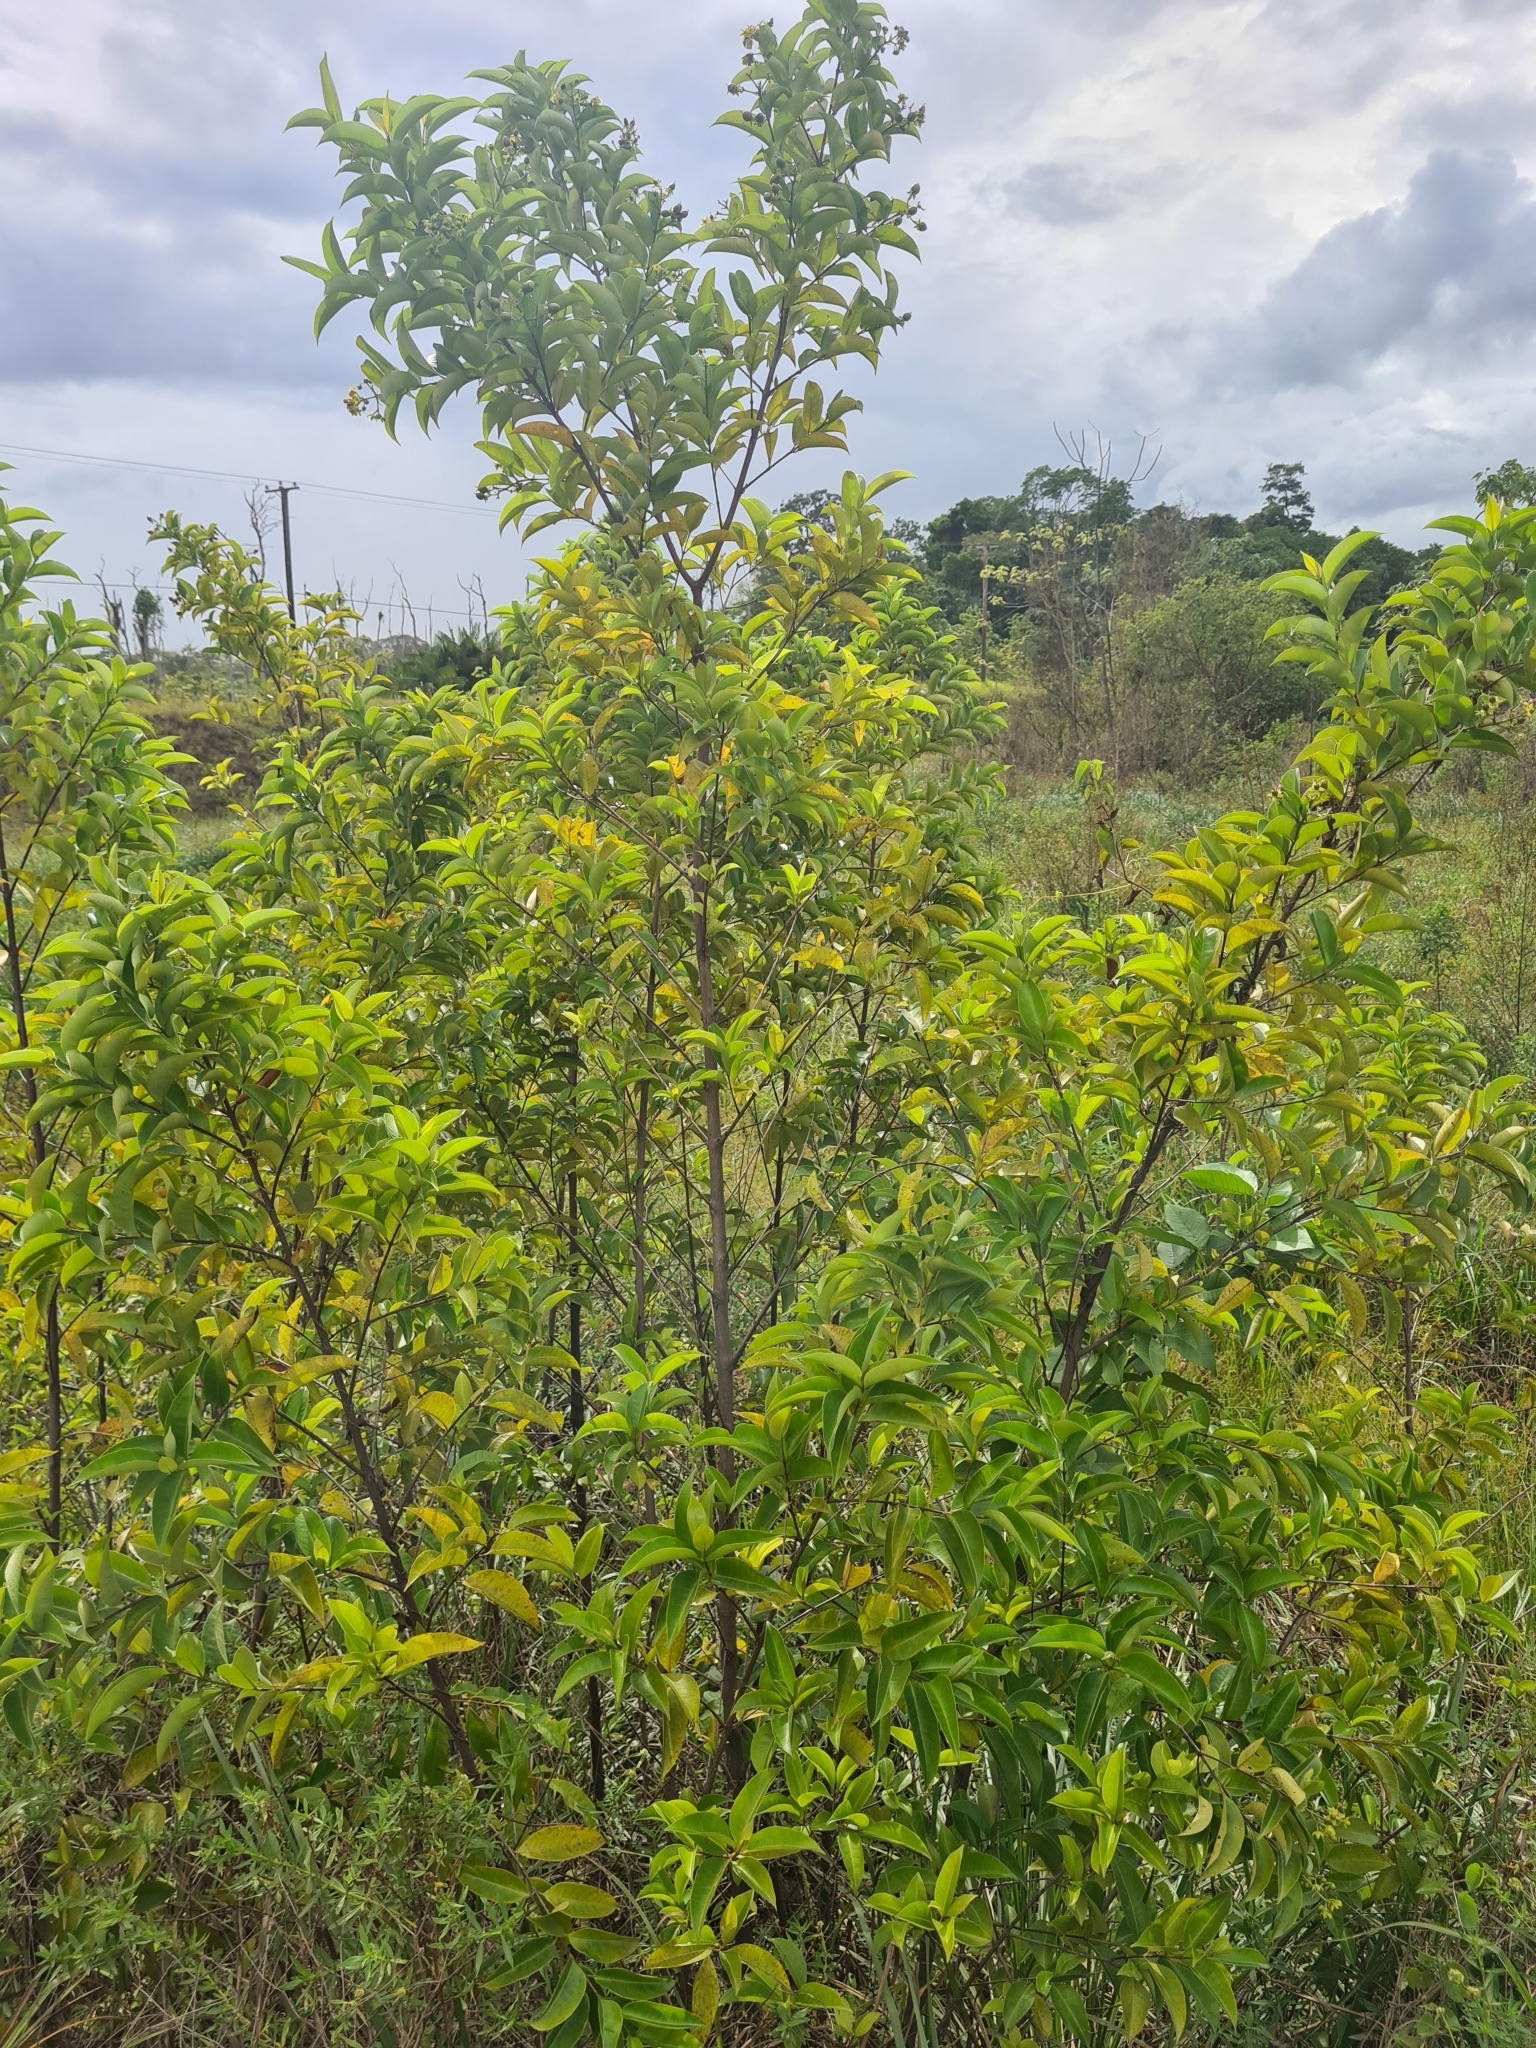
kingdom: Plantae
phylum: Tracheophyta
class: Magnoliopsida
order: Malpighiales
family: Hypericaceae
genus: Vismia
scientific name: Vismia cayennensis
